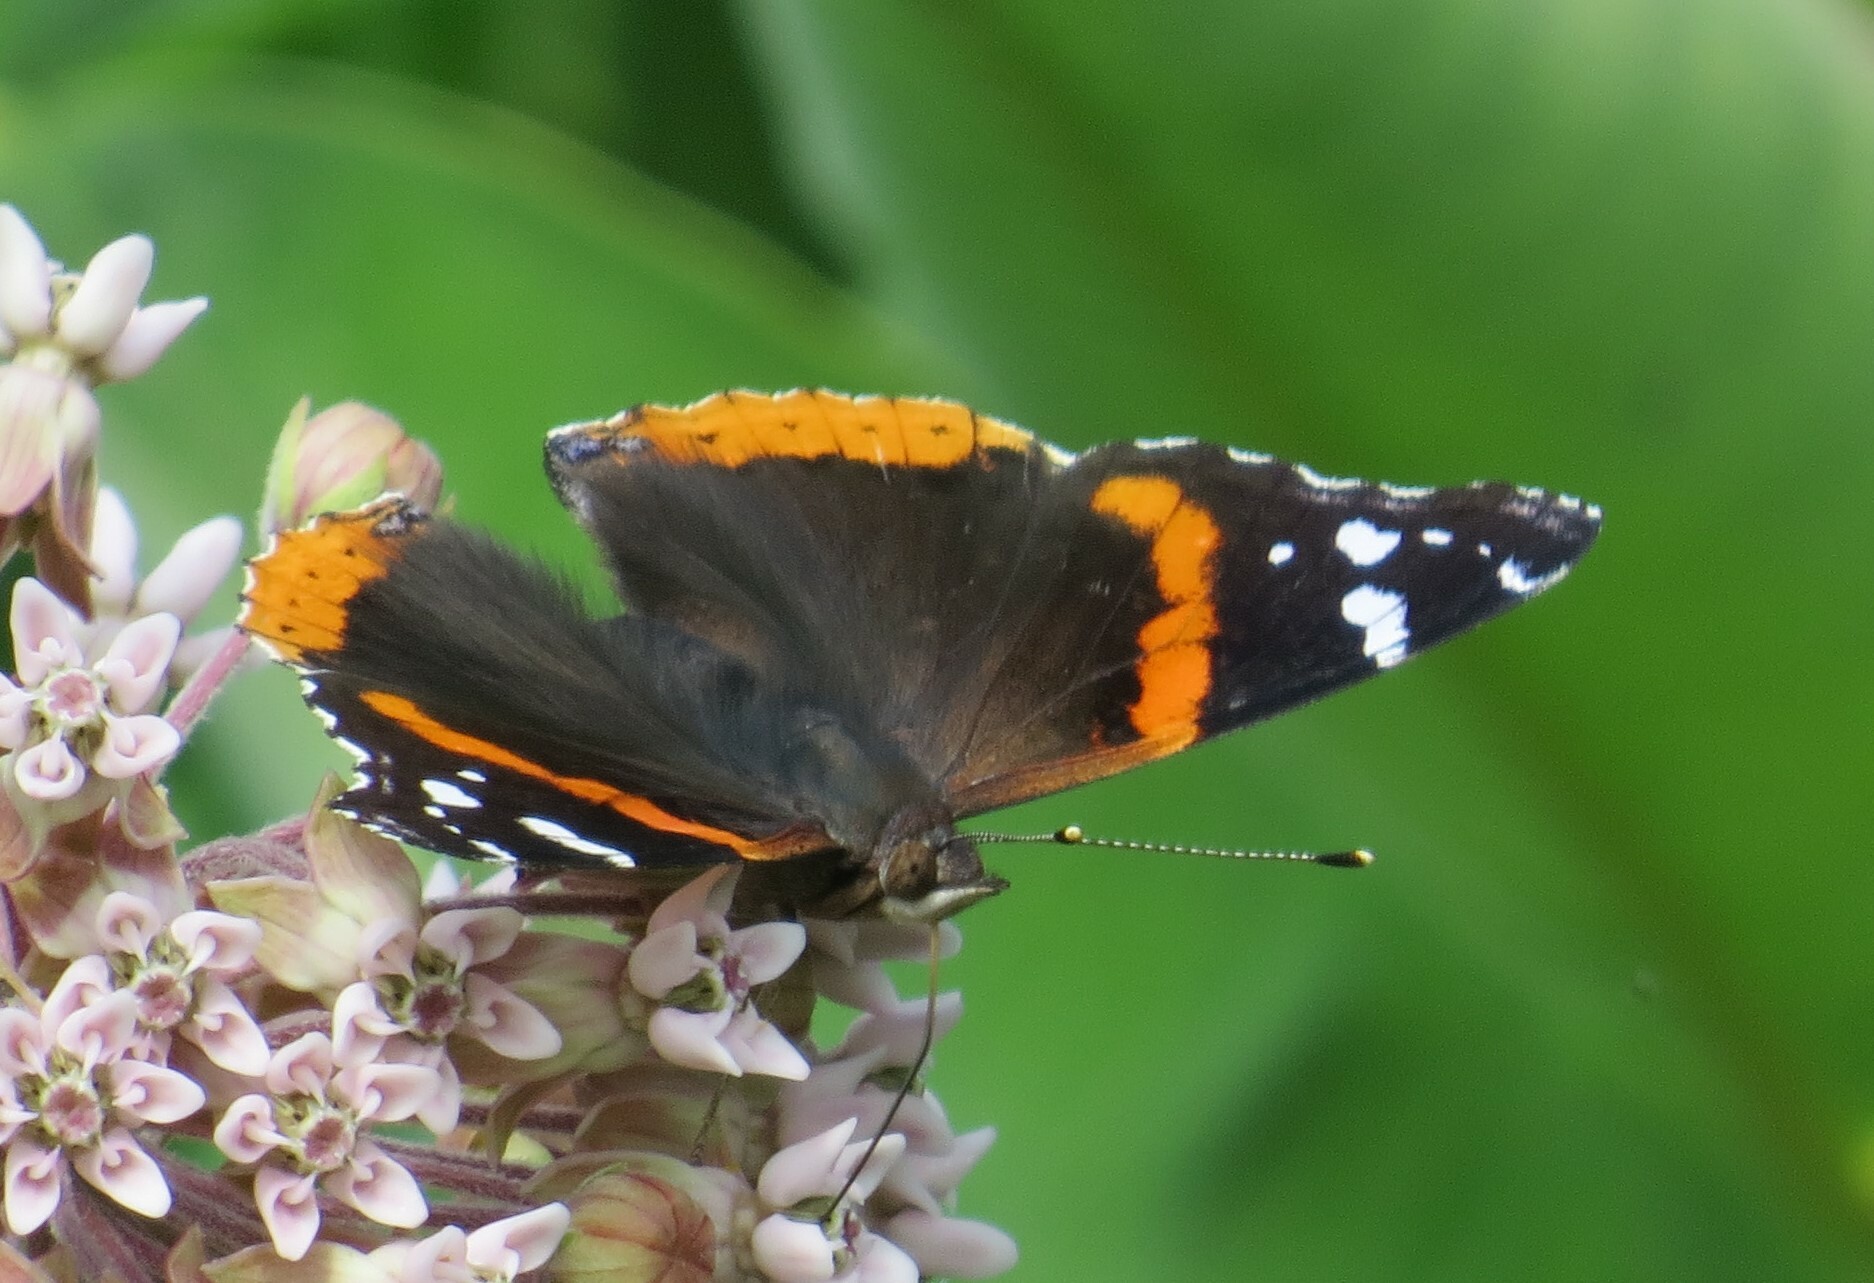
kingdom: Animalia
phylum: Arthropoda
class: Insecta
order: Lepidoptera
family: Nymphalidae
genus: Vanessa
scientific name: Vanessa atalanta
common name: Red admiral
